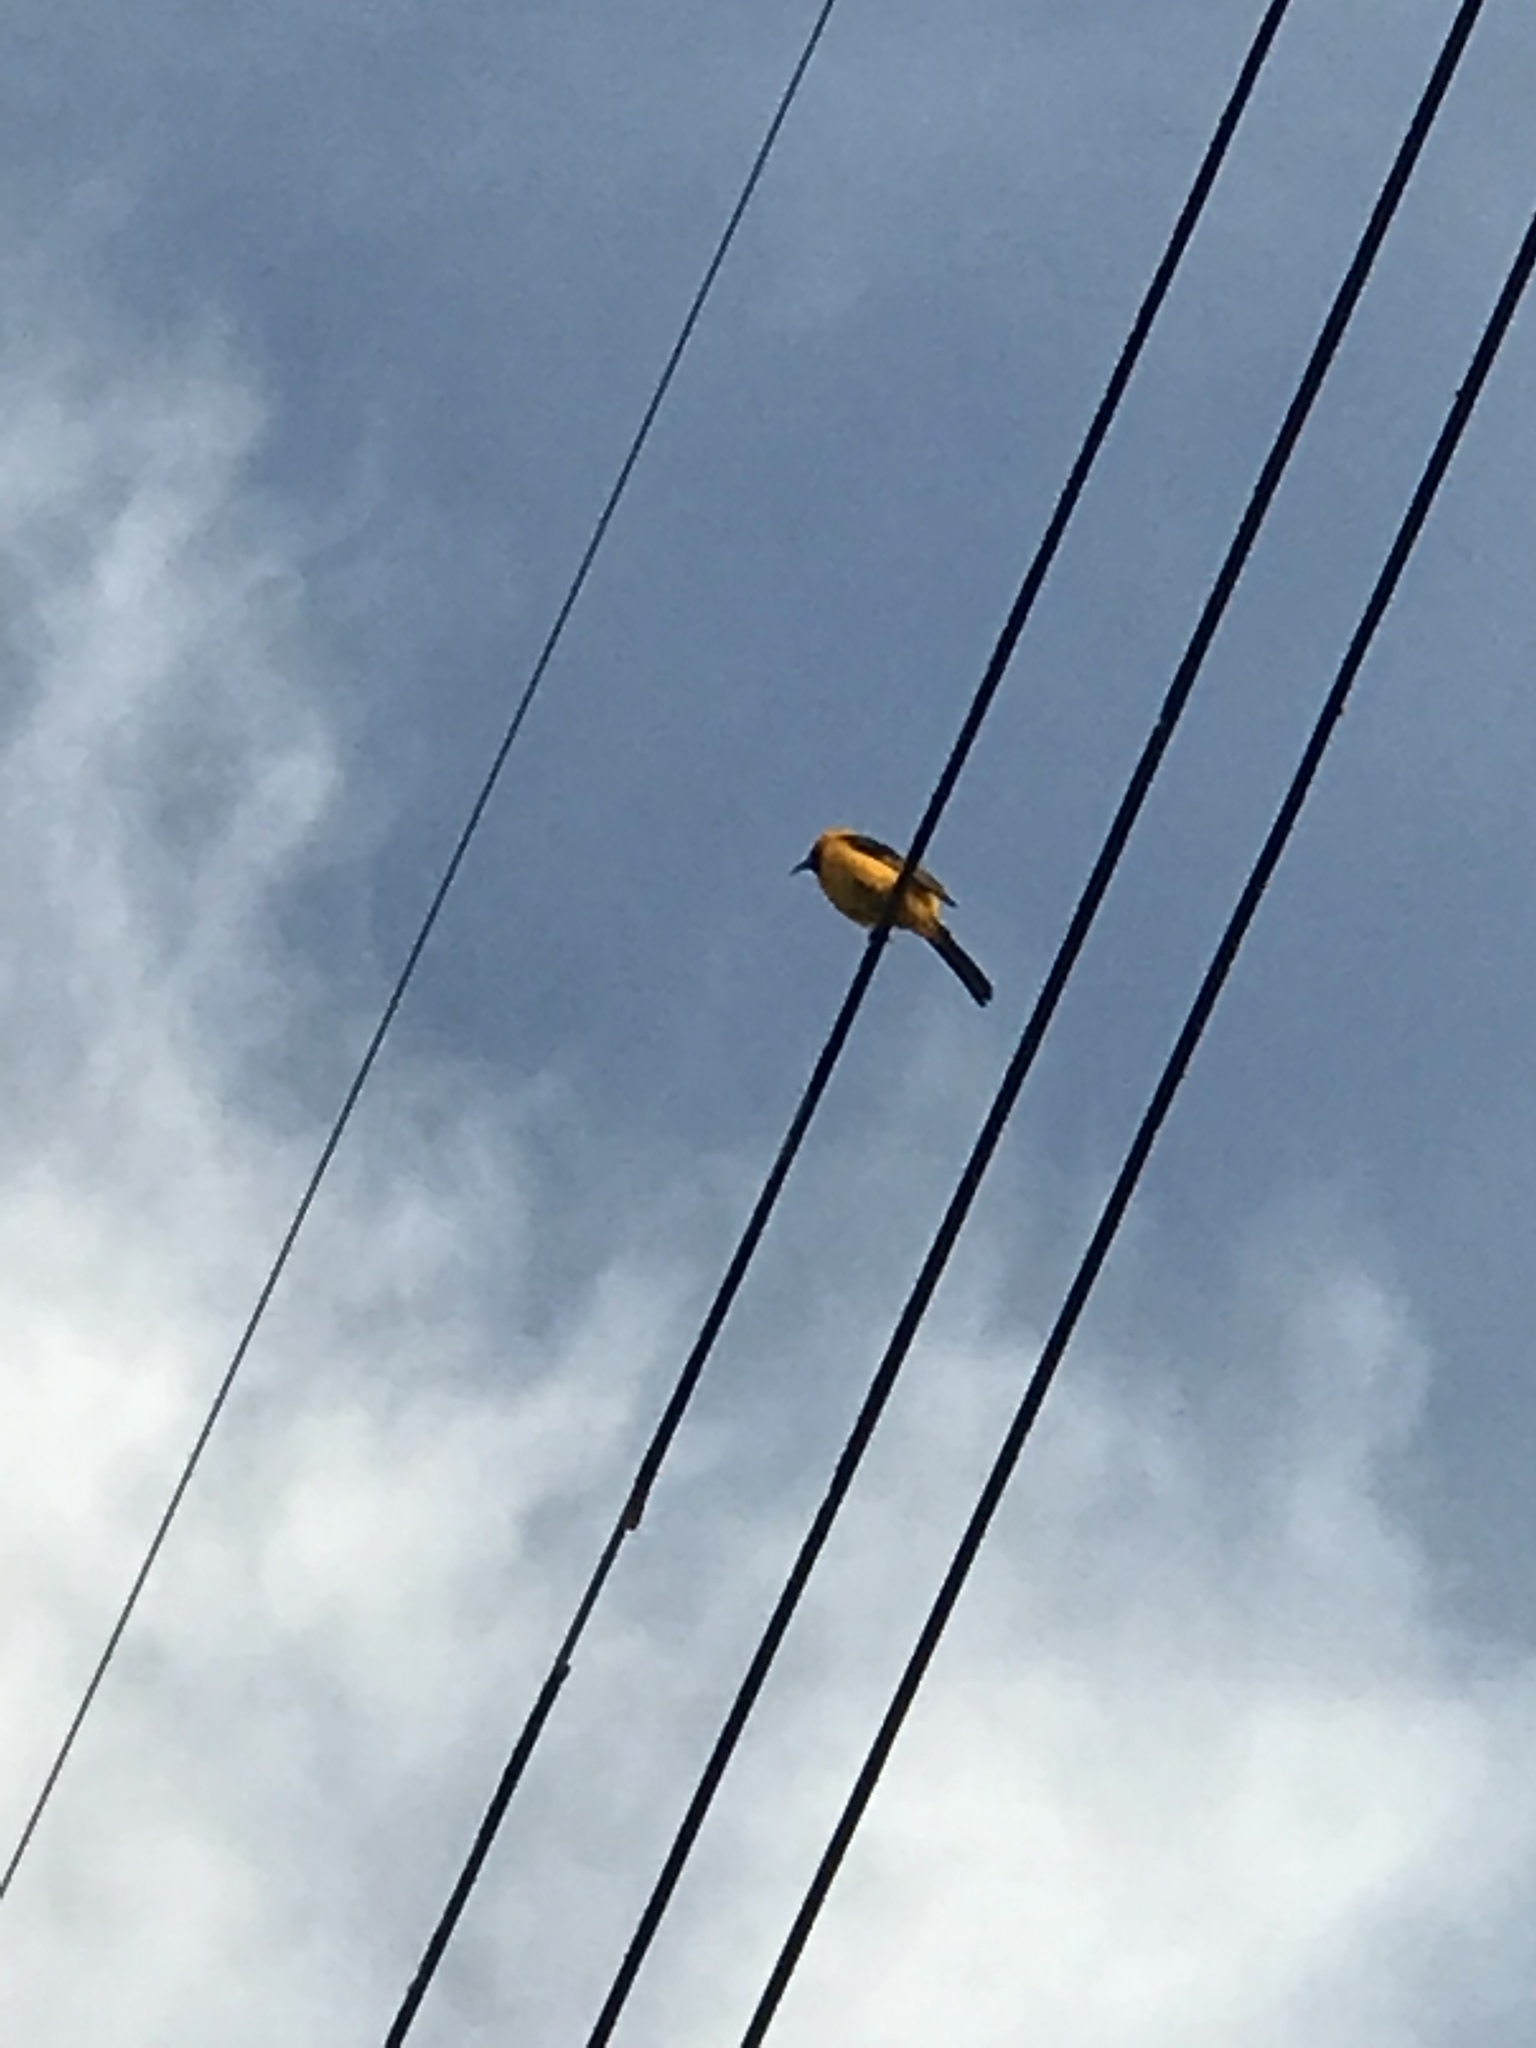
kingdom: Animalia
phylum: Chordata
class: Aves
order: Passeriformes
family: Icteridae
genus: Icterus
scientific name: Icterus cucullatus
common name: Hooded oriole
